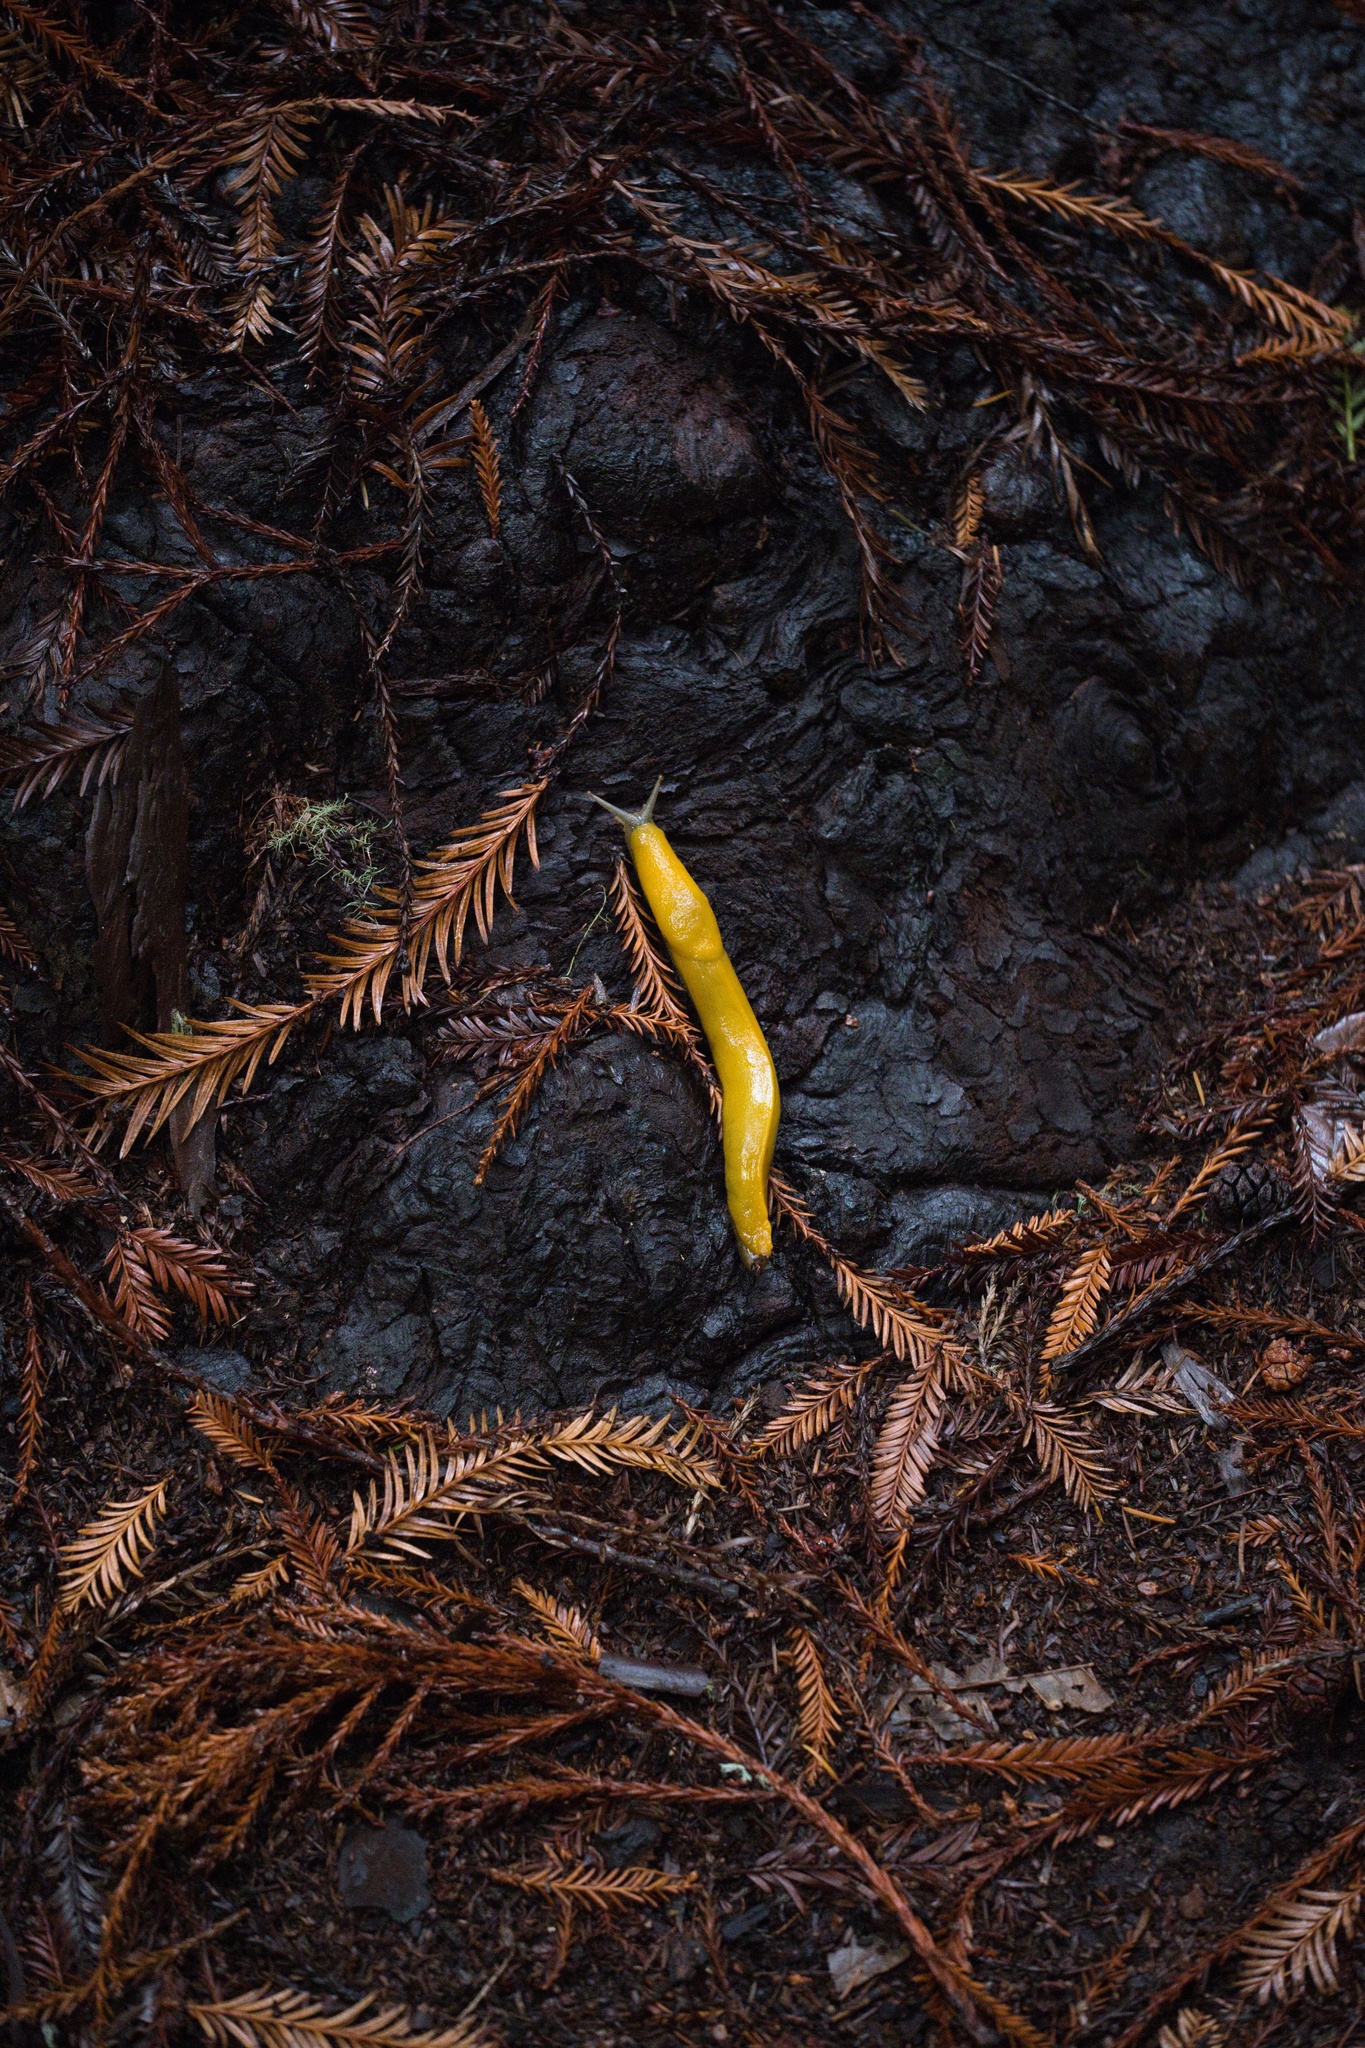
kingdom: Animalia
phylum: Mollusca
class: Gastropoda
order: Stylommatophora
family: Ariolimacidae
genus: Ariolimax
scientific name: Ariolimax californicus
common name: California banana slug
